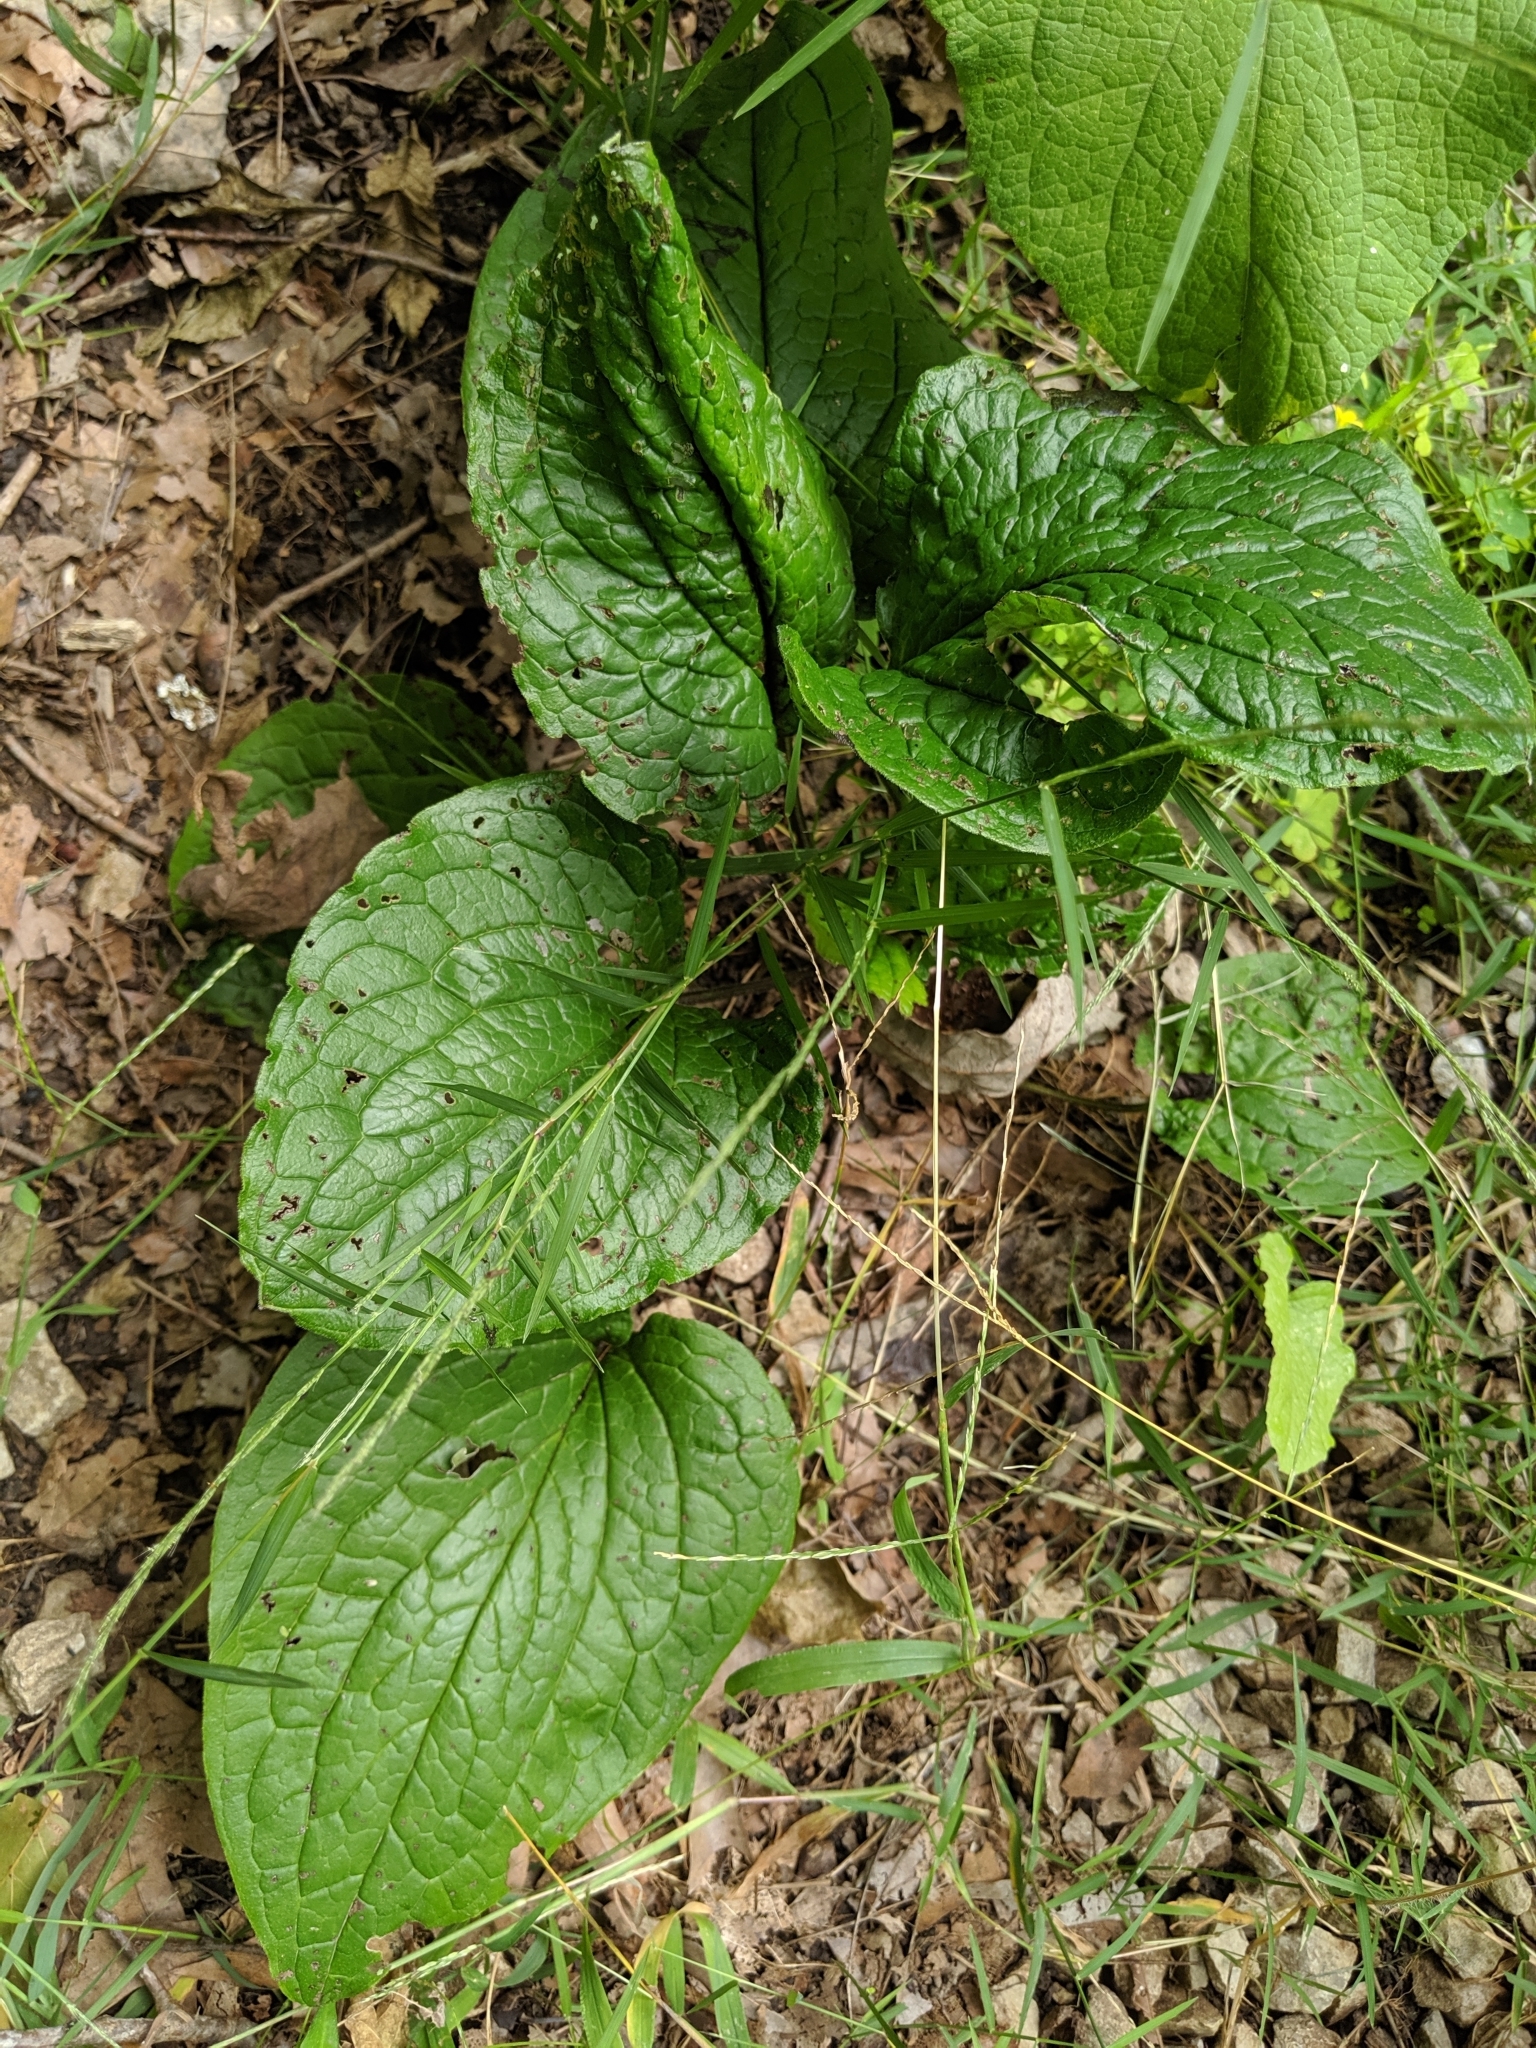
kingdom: Plantae
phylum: Tracheophyta
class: Magnoliopsida
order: Boraginales
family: Boraginaceae
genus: Hackelia
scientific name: Hackelia virginiana
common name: Beggar's-lice
